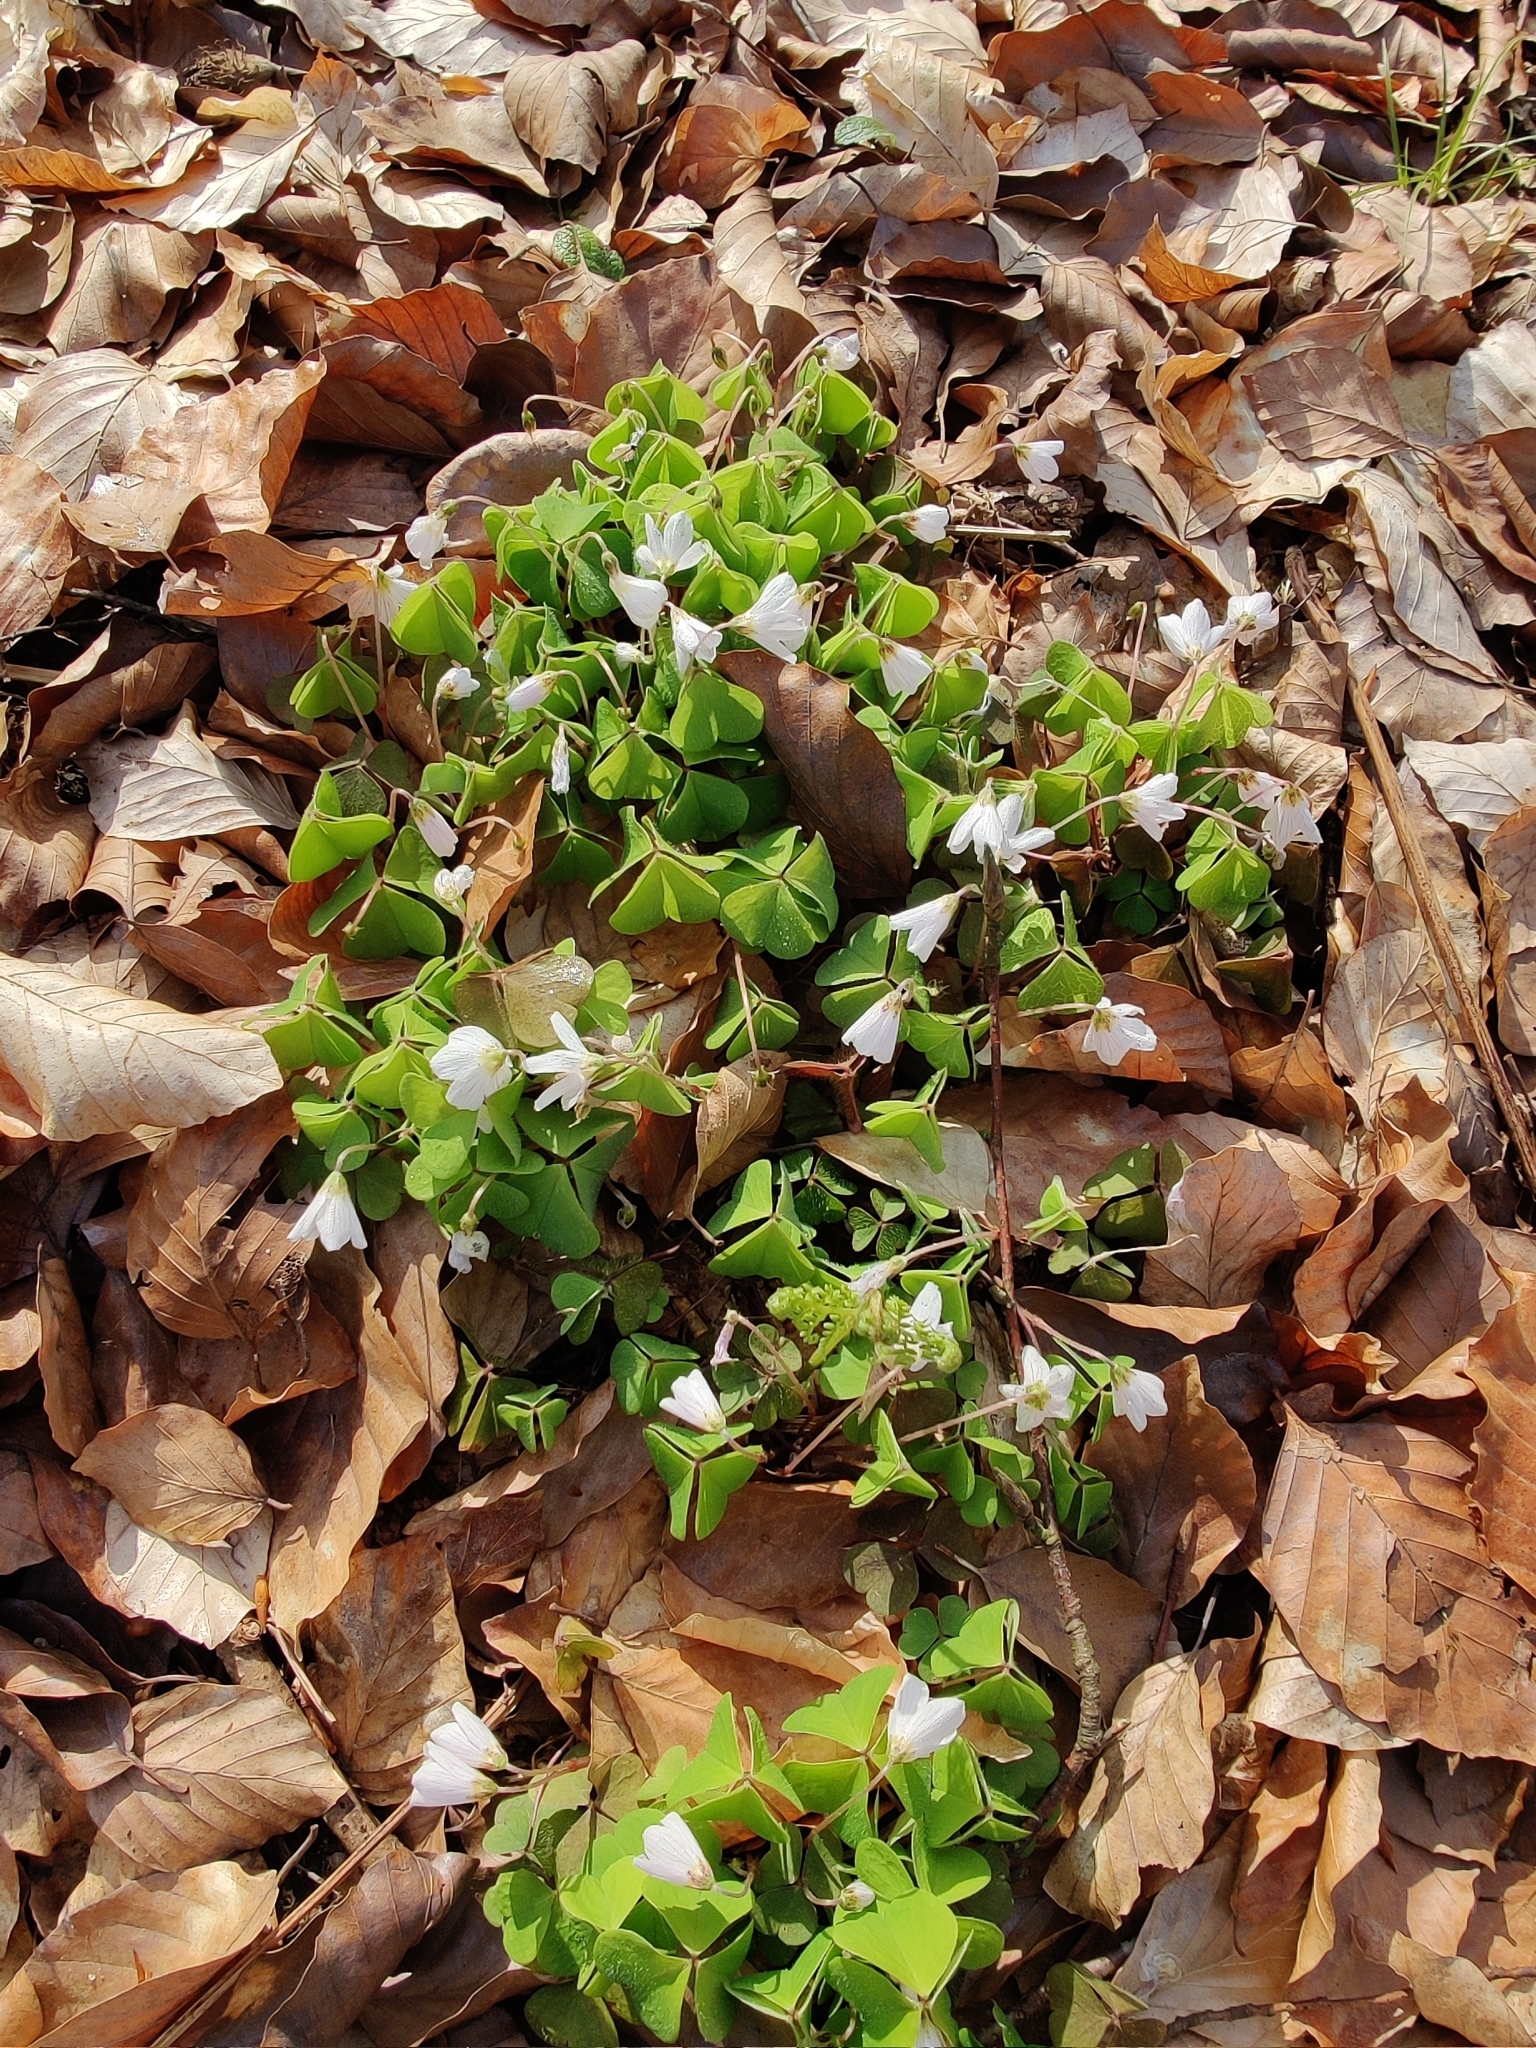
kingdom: Plantae
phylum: Tracheophyta
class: Magnoliopsida
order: Oxalidales
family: Oxalidaceae
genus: Oxalis
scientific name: Oxalis acetosella
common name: Wood-sorrel
